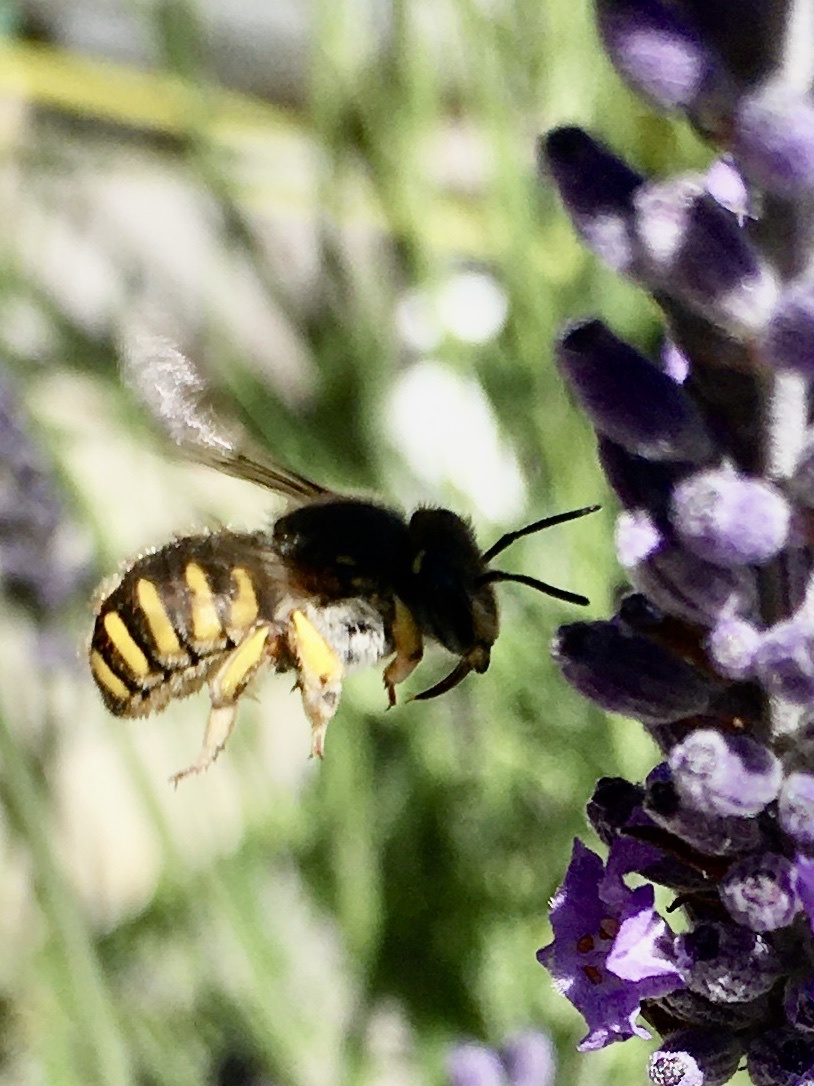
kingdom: Animalia
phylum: Arthropoda
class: Insecta
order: Hymenoptera
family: Megachilidae
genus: Anthidium
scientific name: Anthidium manicatum
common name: Wool carder bee
